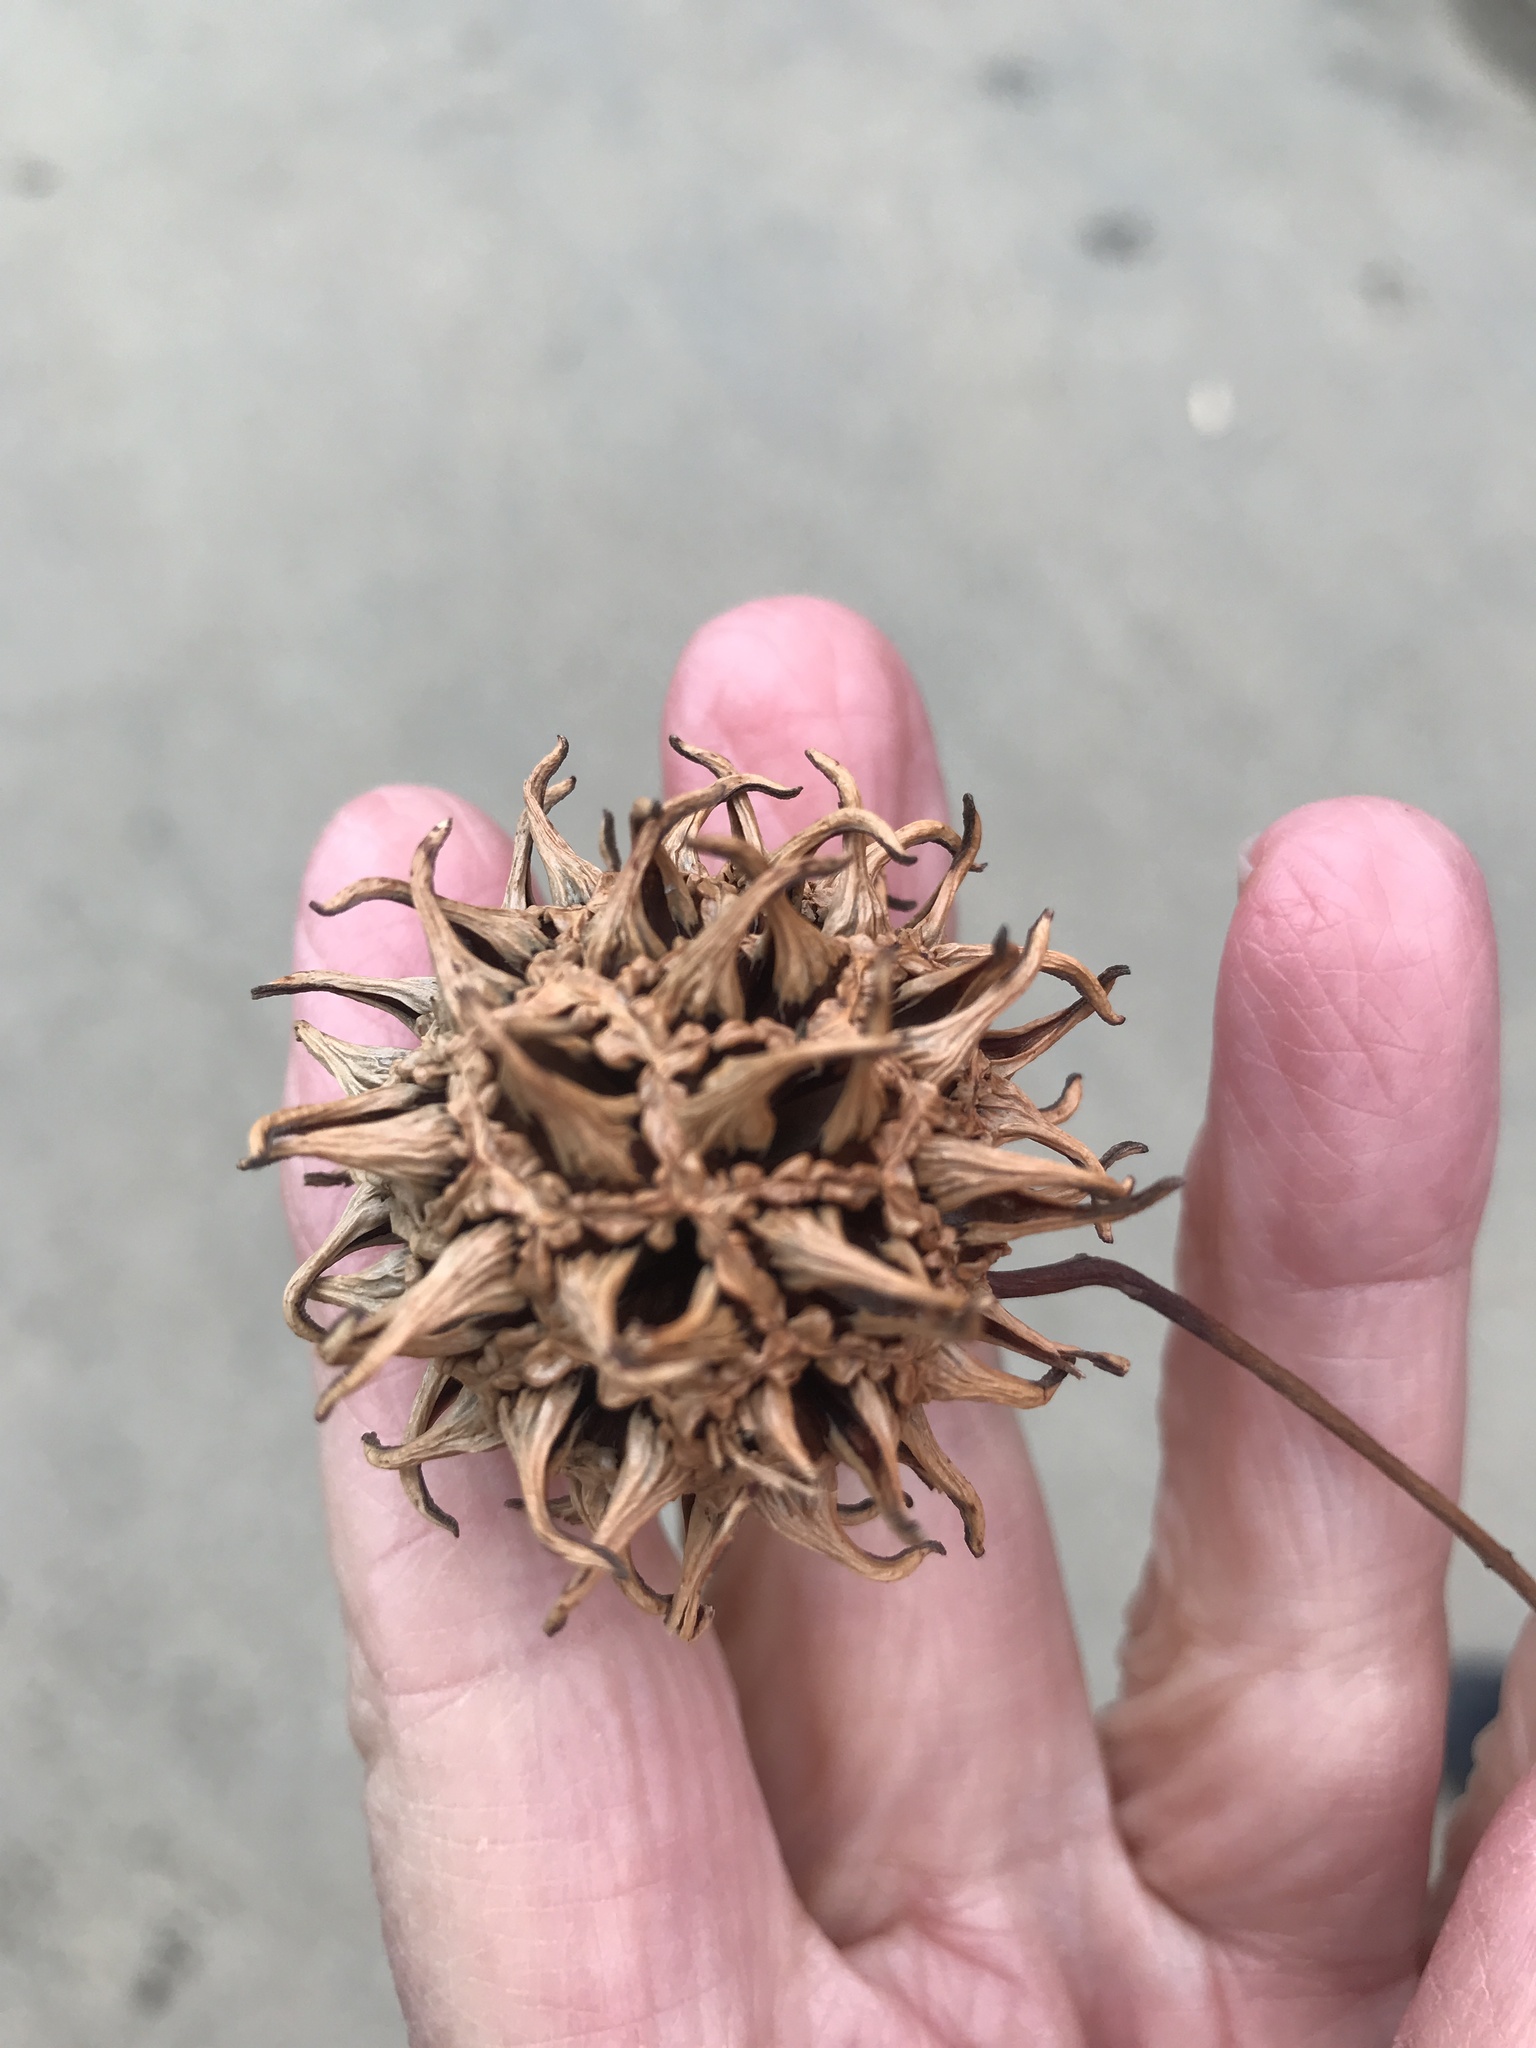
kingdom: Plantae
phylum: Tracheophyta
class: Magnoliopsida
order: Saxifragales
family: Altingiaceae
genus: Liquidambar
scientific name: Liquidambar styraciflua
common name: Sweet gum
